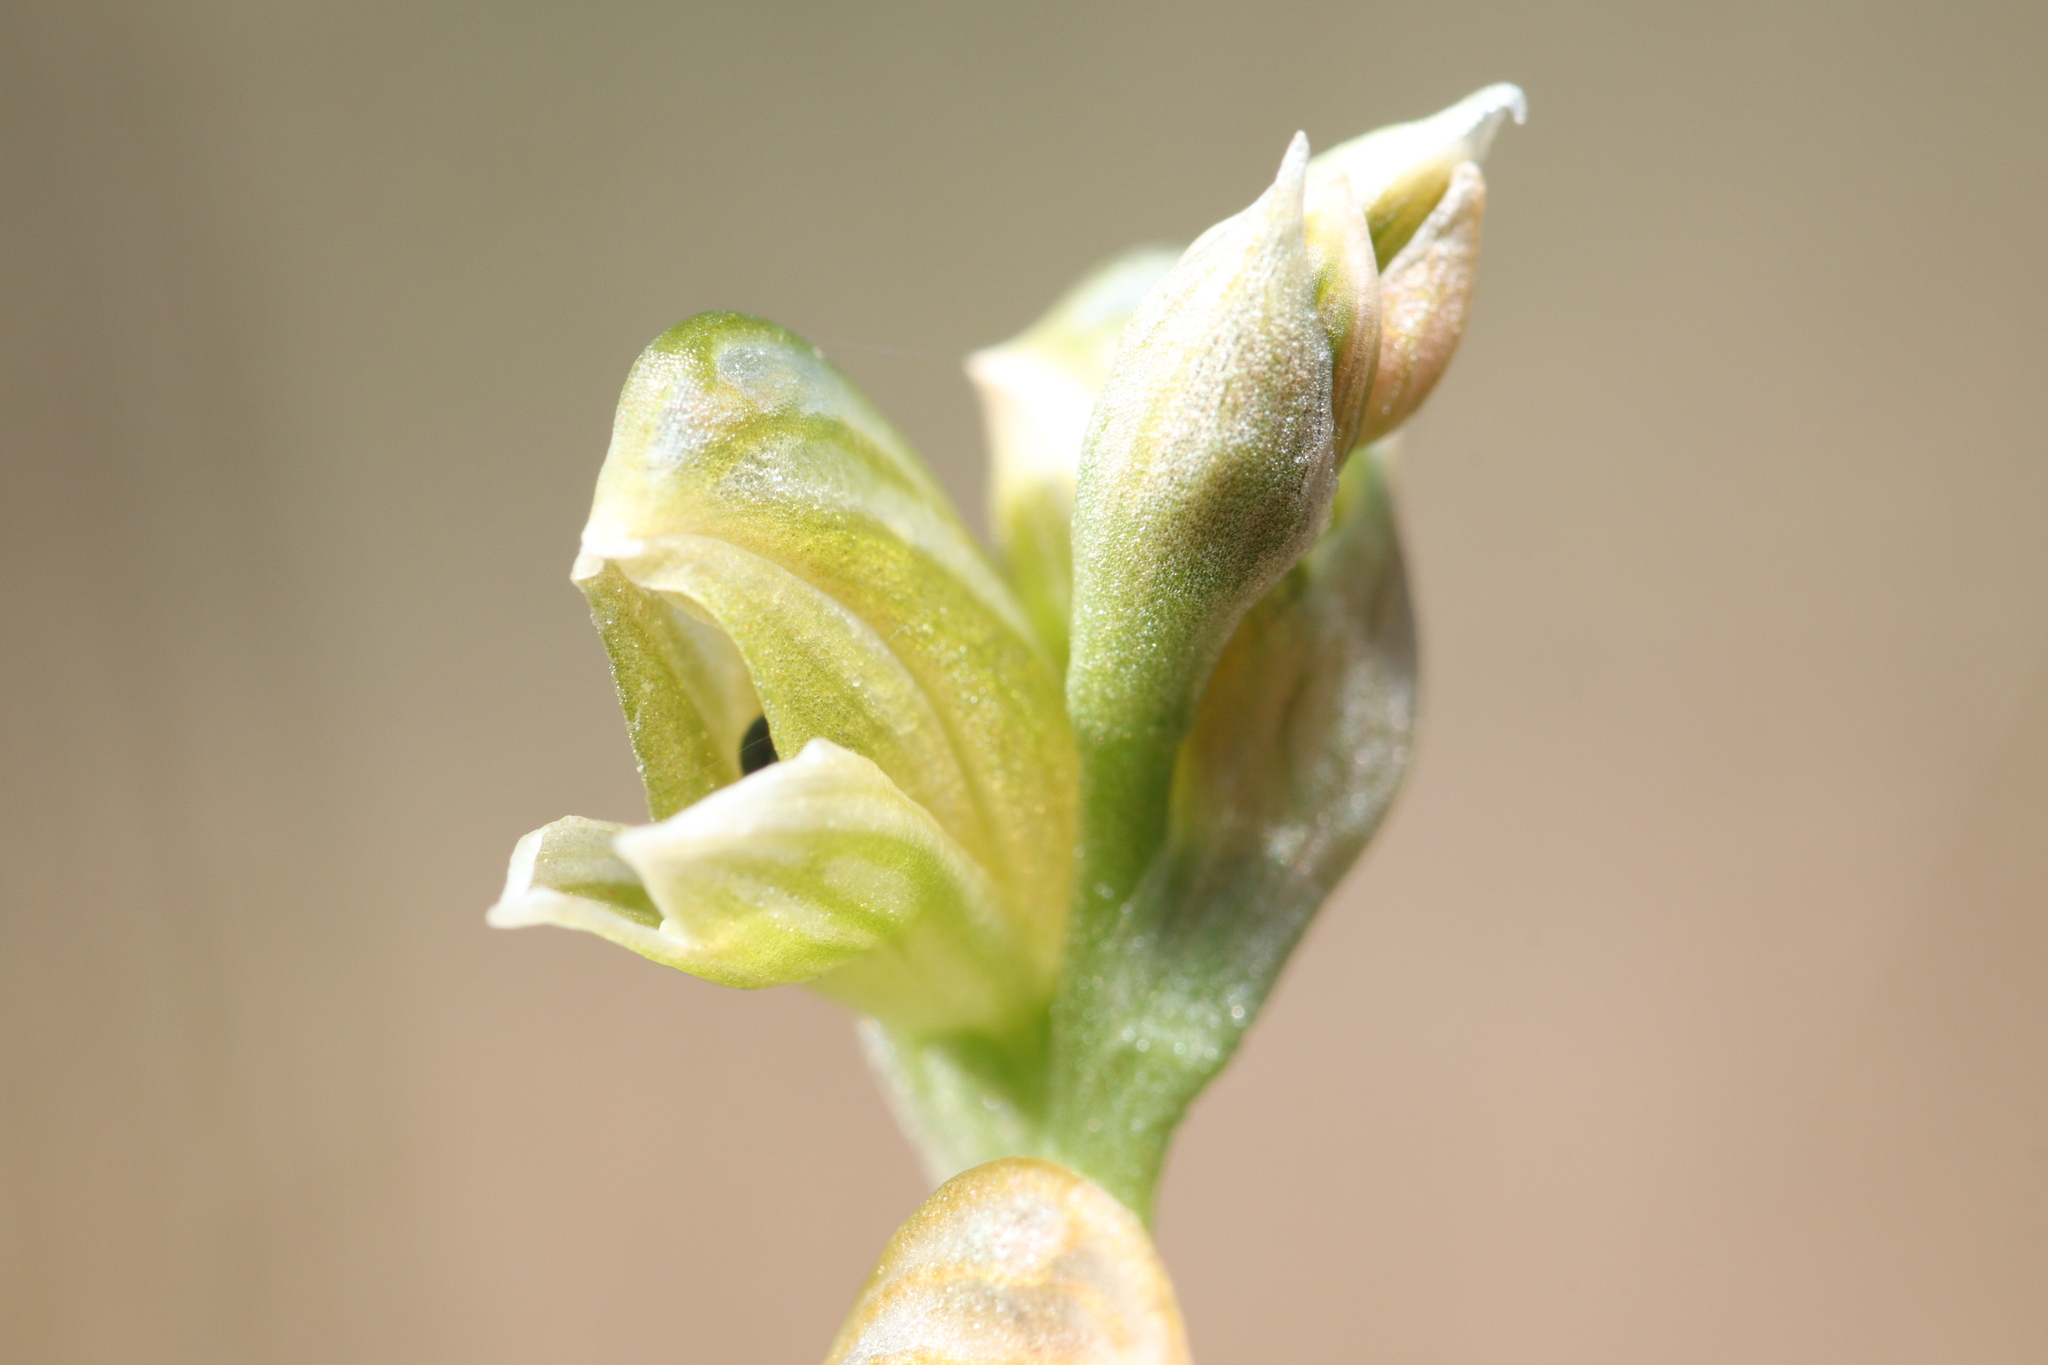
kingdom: Plantae
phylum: Tracheophyta
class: Liliopsida
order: Asparagales
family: Orchidaceae
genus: Pterostylis
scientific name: Pterostylis bicolor
